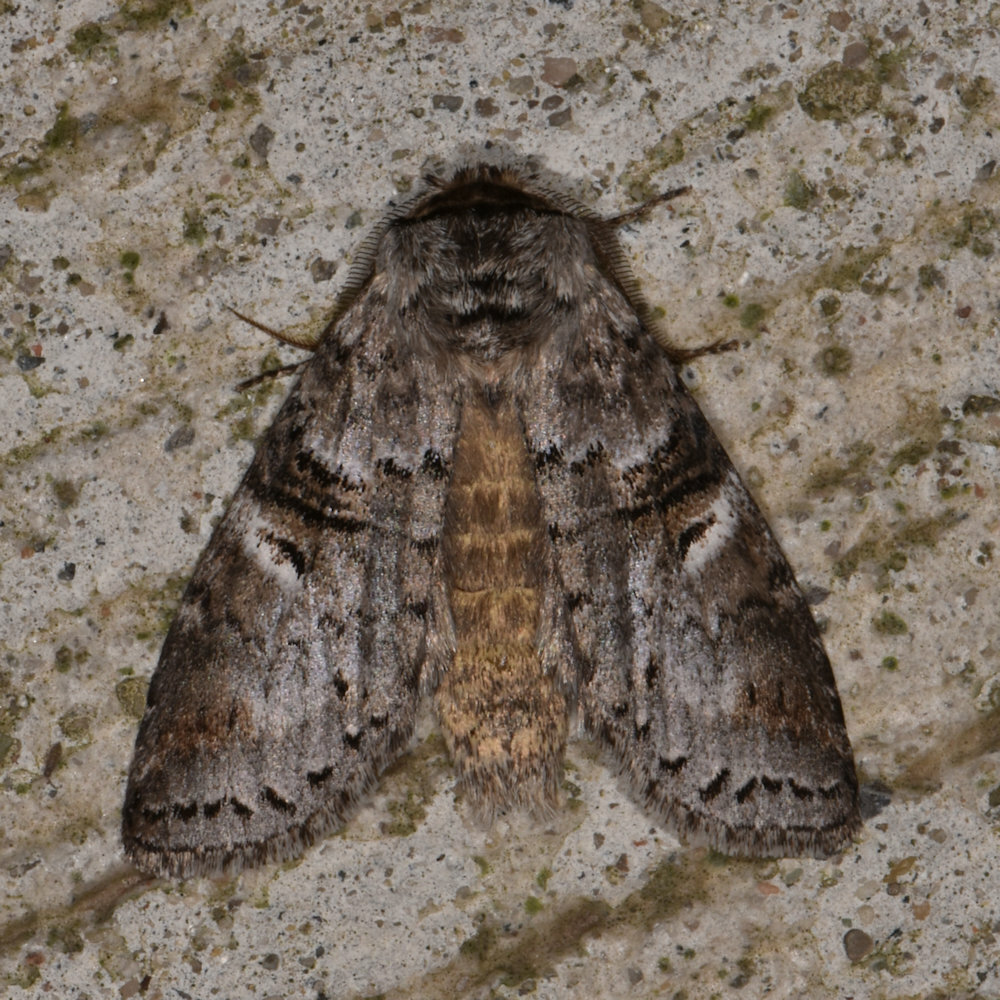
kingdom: Animalia
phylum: Arthropoda
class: Insecta
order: Lepidoptera
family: Notodontidae
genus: Ellida
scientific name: Ellida caniplaga
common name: Linden prominent
